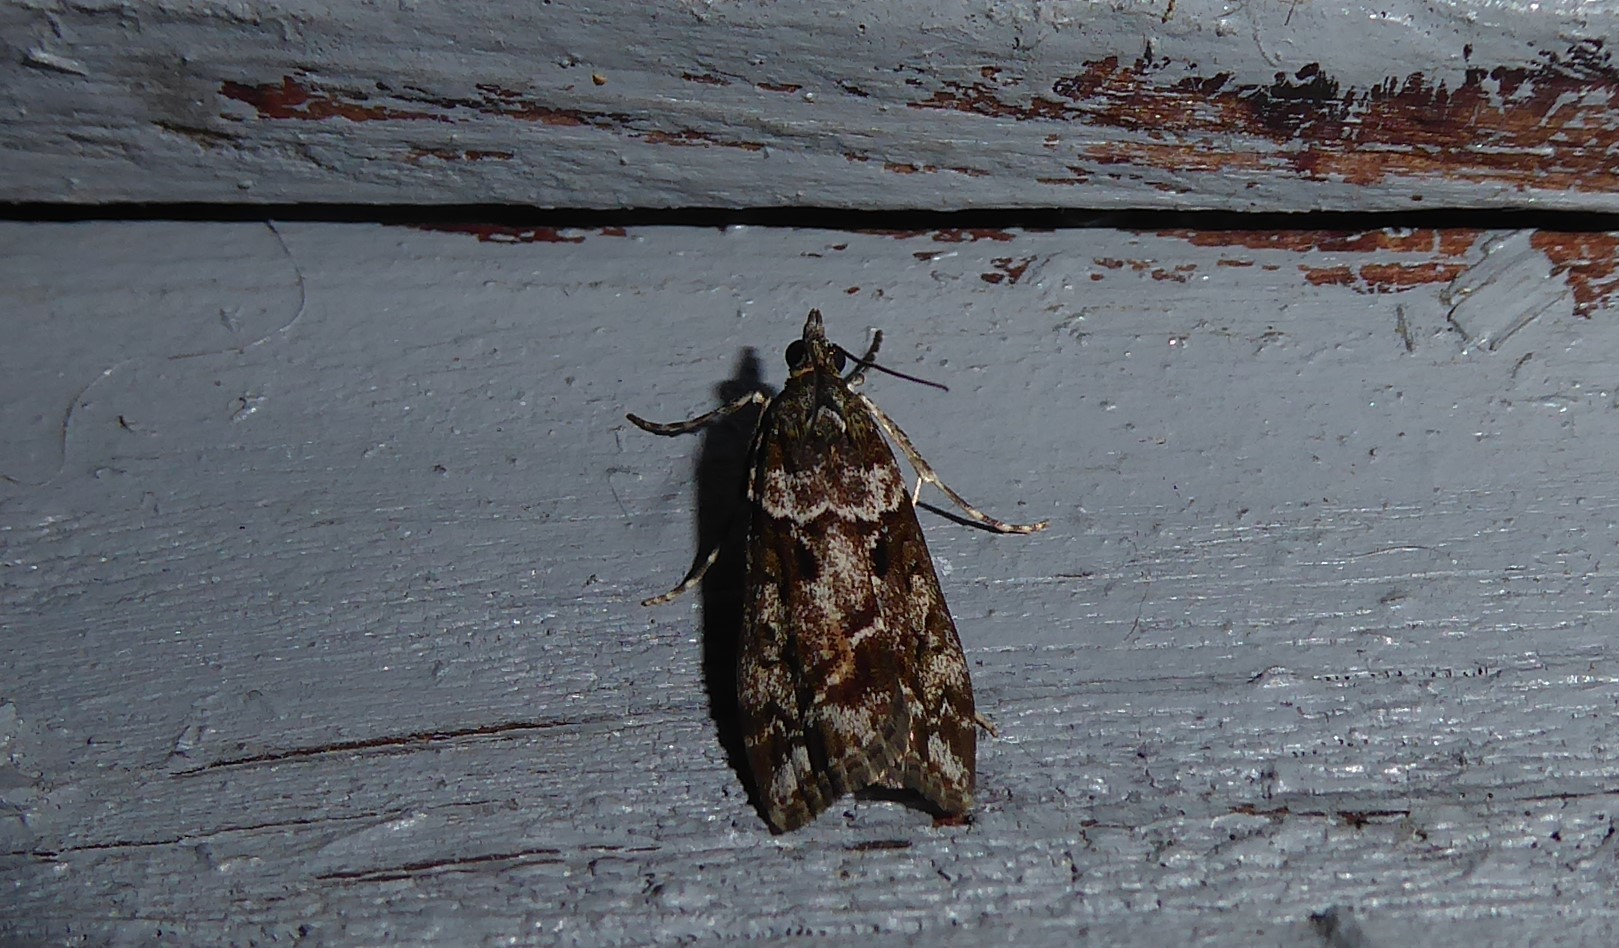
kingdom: Animalia
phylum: Arthropoda
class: Insecta
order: Lepidoptera
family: Crambidae
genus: Eudonia
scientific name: Eudonia submarginalis
